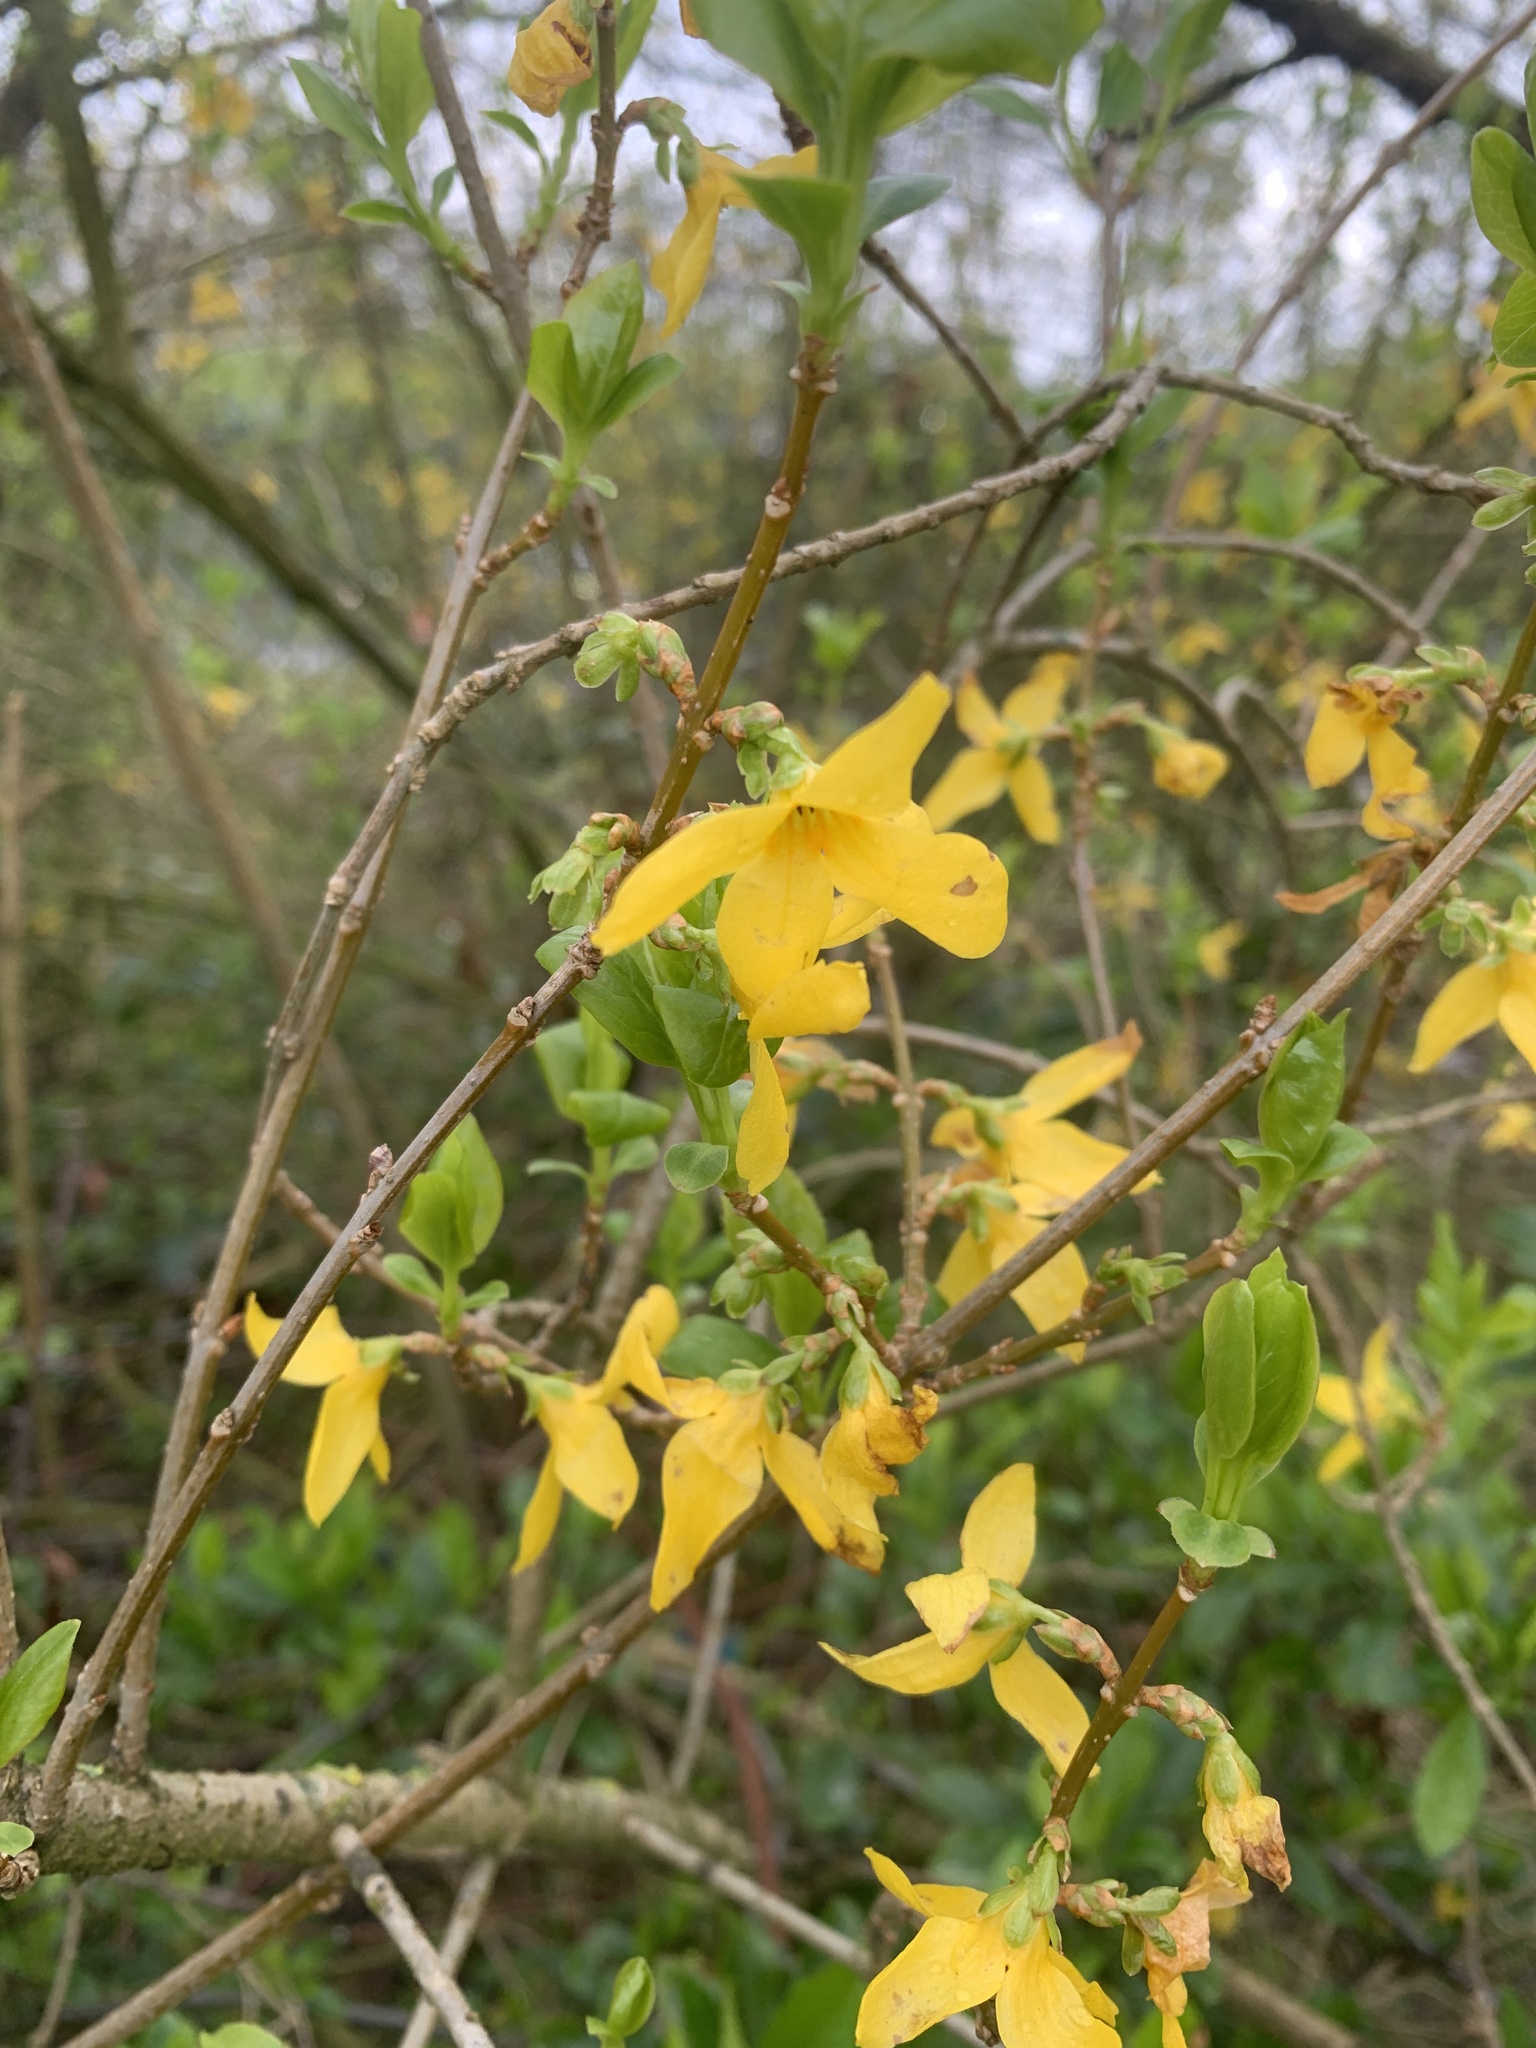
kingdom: Plantae
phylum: Tracheophyta
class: Magnoliopsida
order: Lamiales
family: Oleaceae
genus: Forsythia
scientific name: Forsythia intermedia
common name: Forsythia
